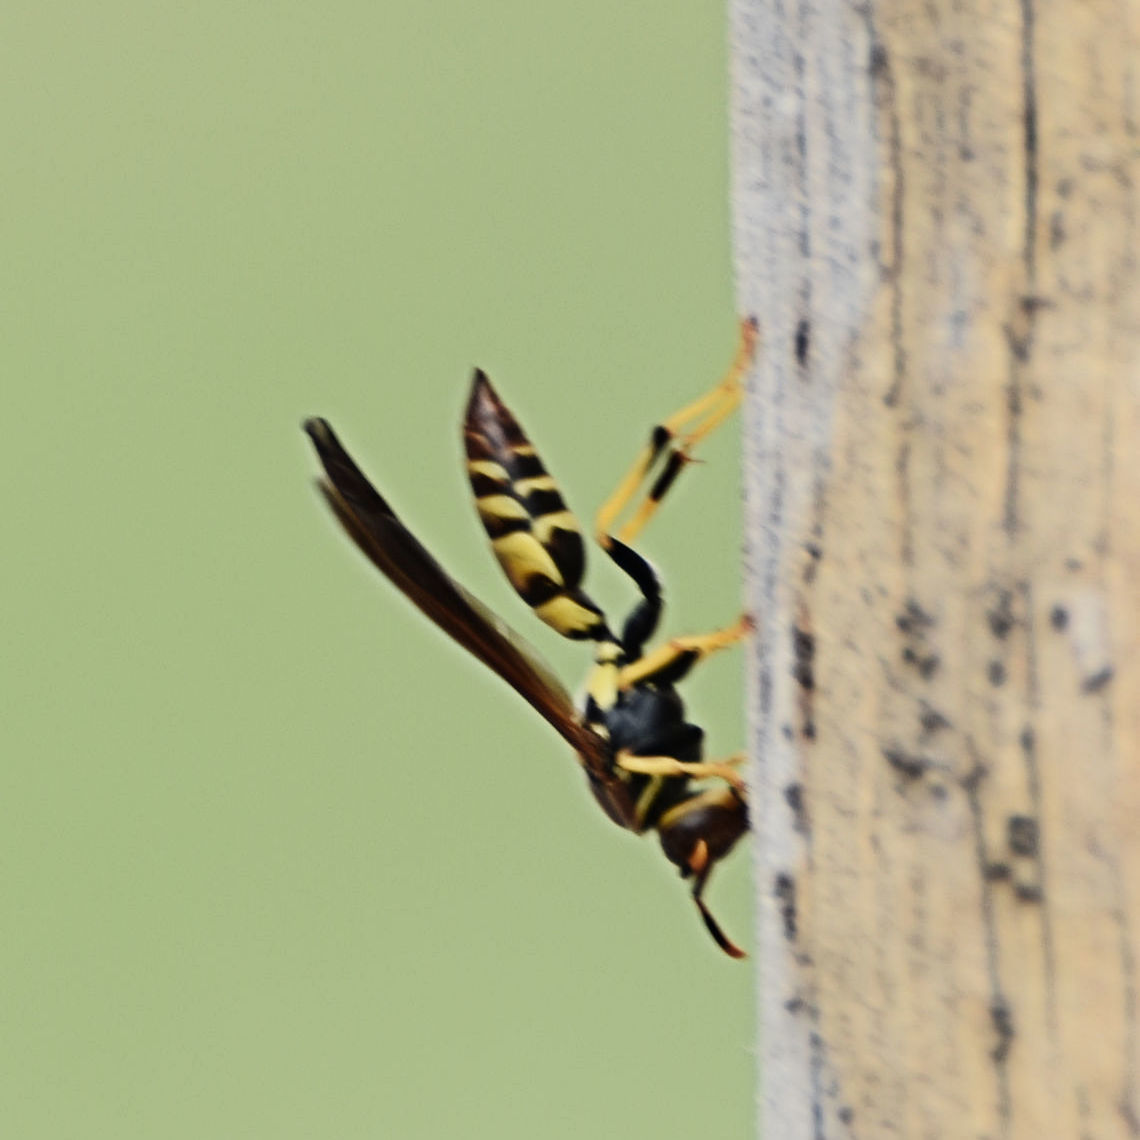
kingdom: Animalia
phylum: Arthropoda
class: Insecta
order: Hymenoptera
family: Eumenidae
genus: Polistes
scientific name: Polistes minor
